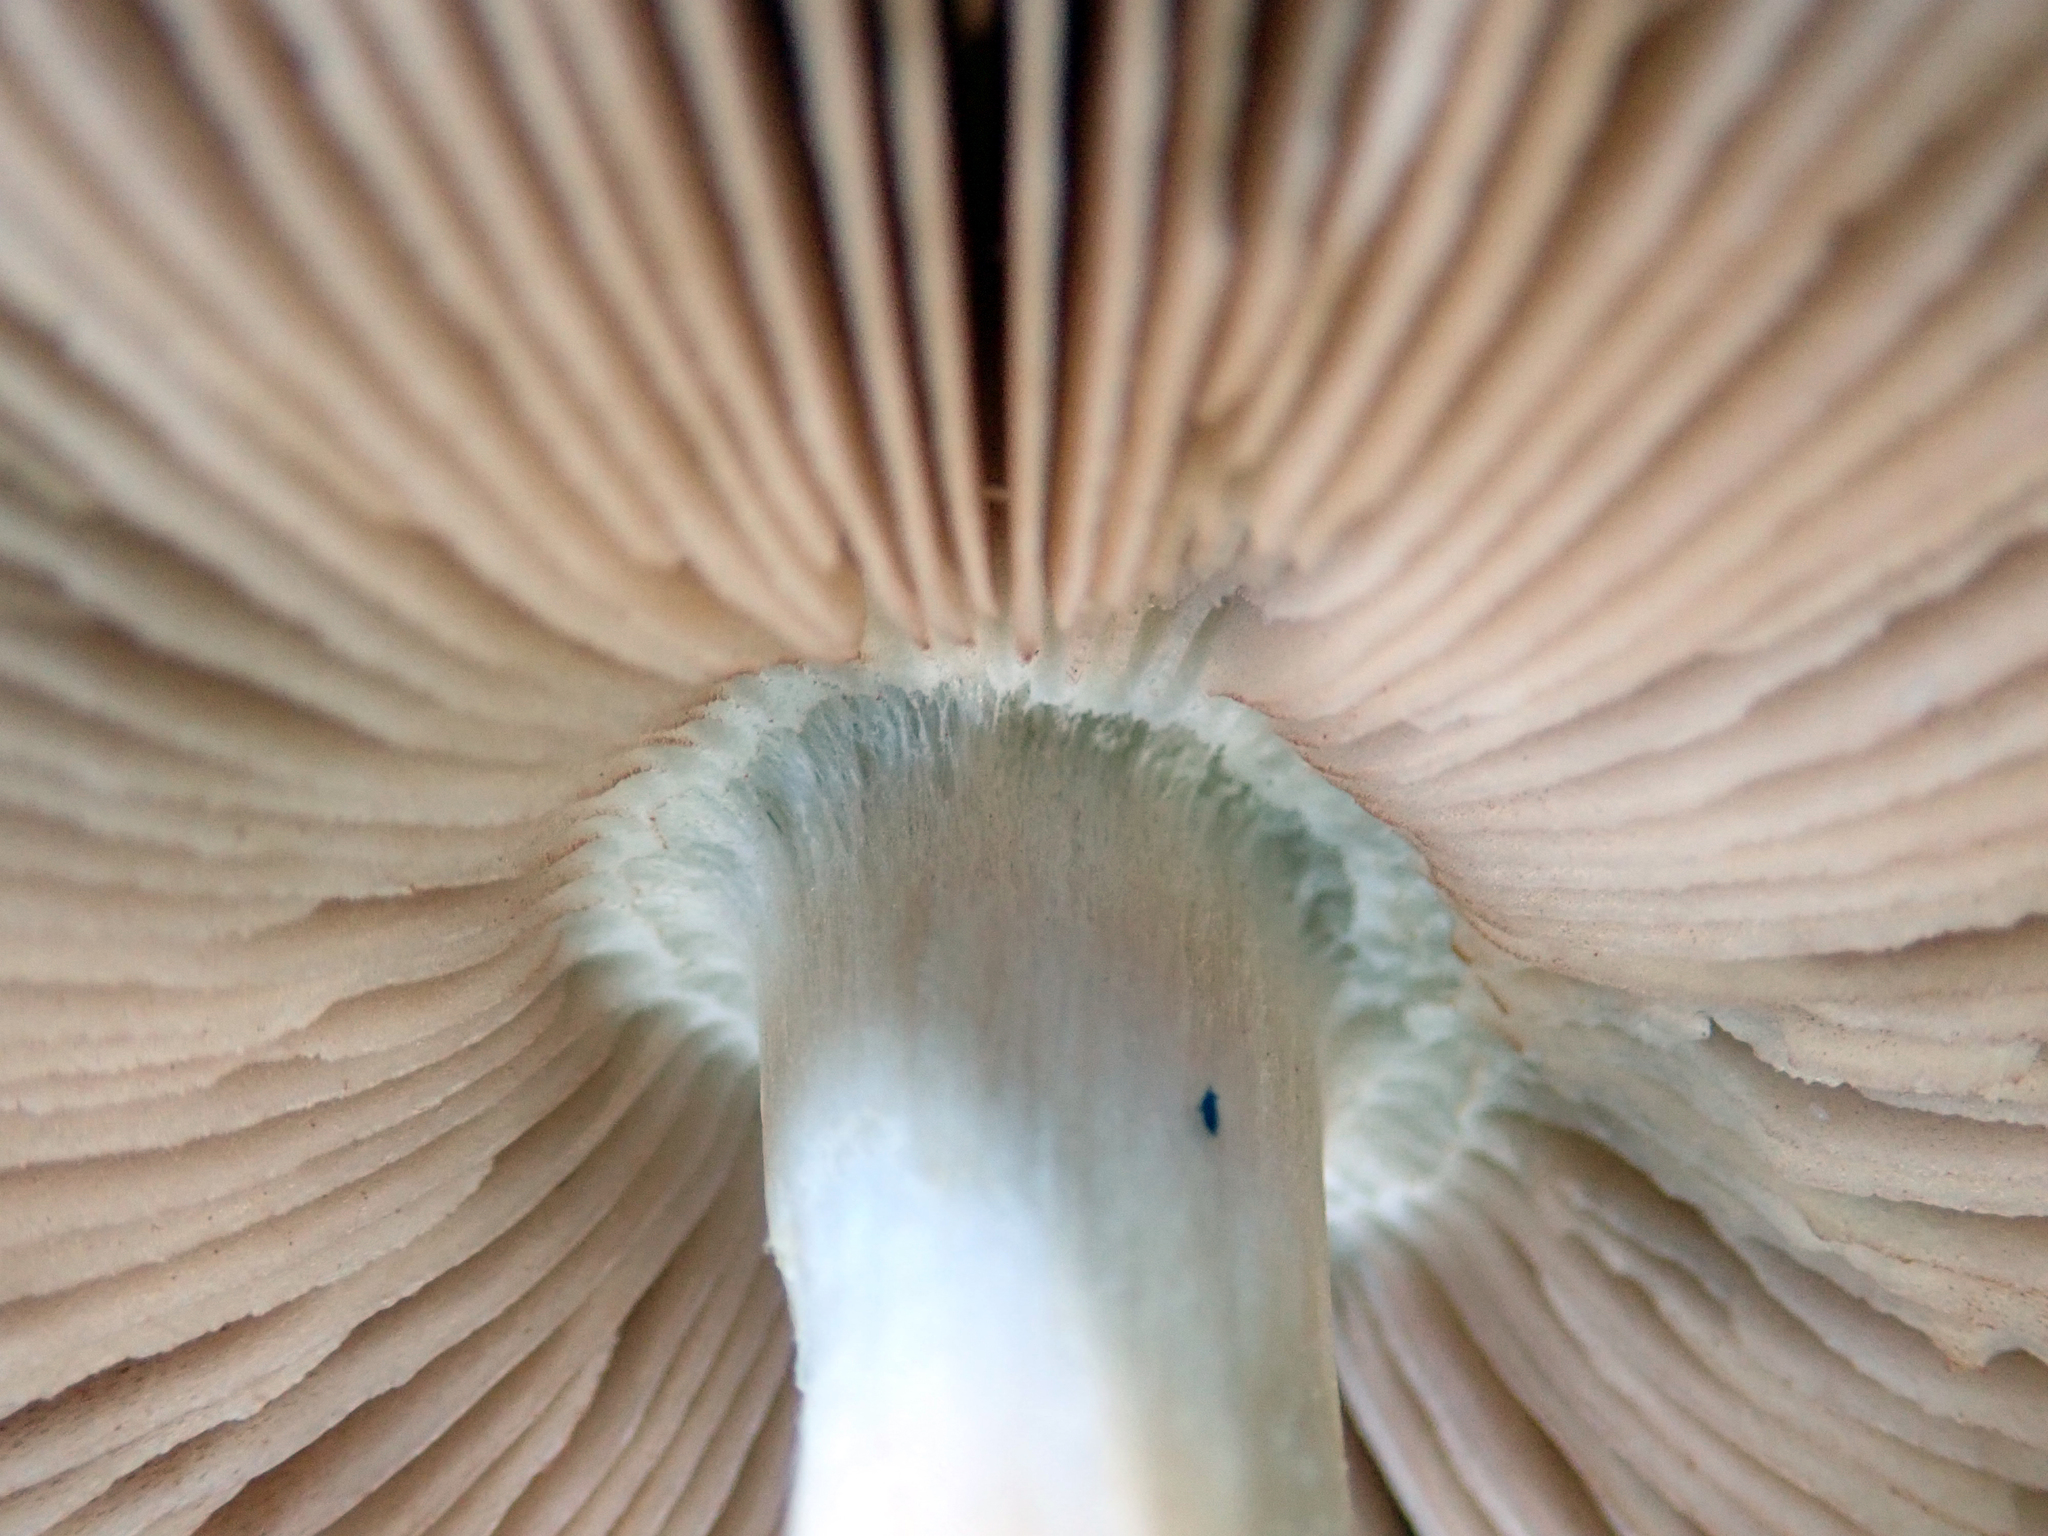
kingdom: Fungi
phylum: Basidiomycota
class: Agaricomycetes
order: Agaricales
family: Pluteaceae
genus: Volvopluteus
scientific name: Volvopluteus gloiocephalus
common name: Stubble rosegill
